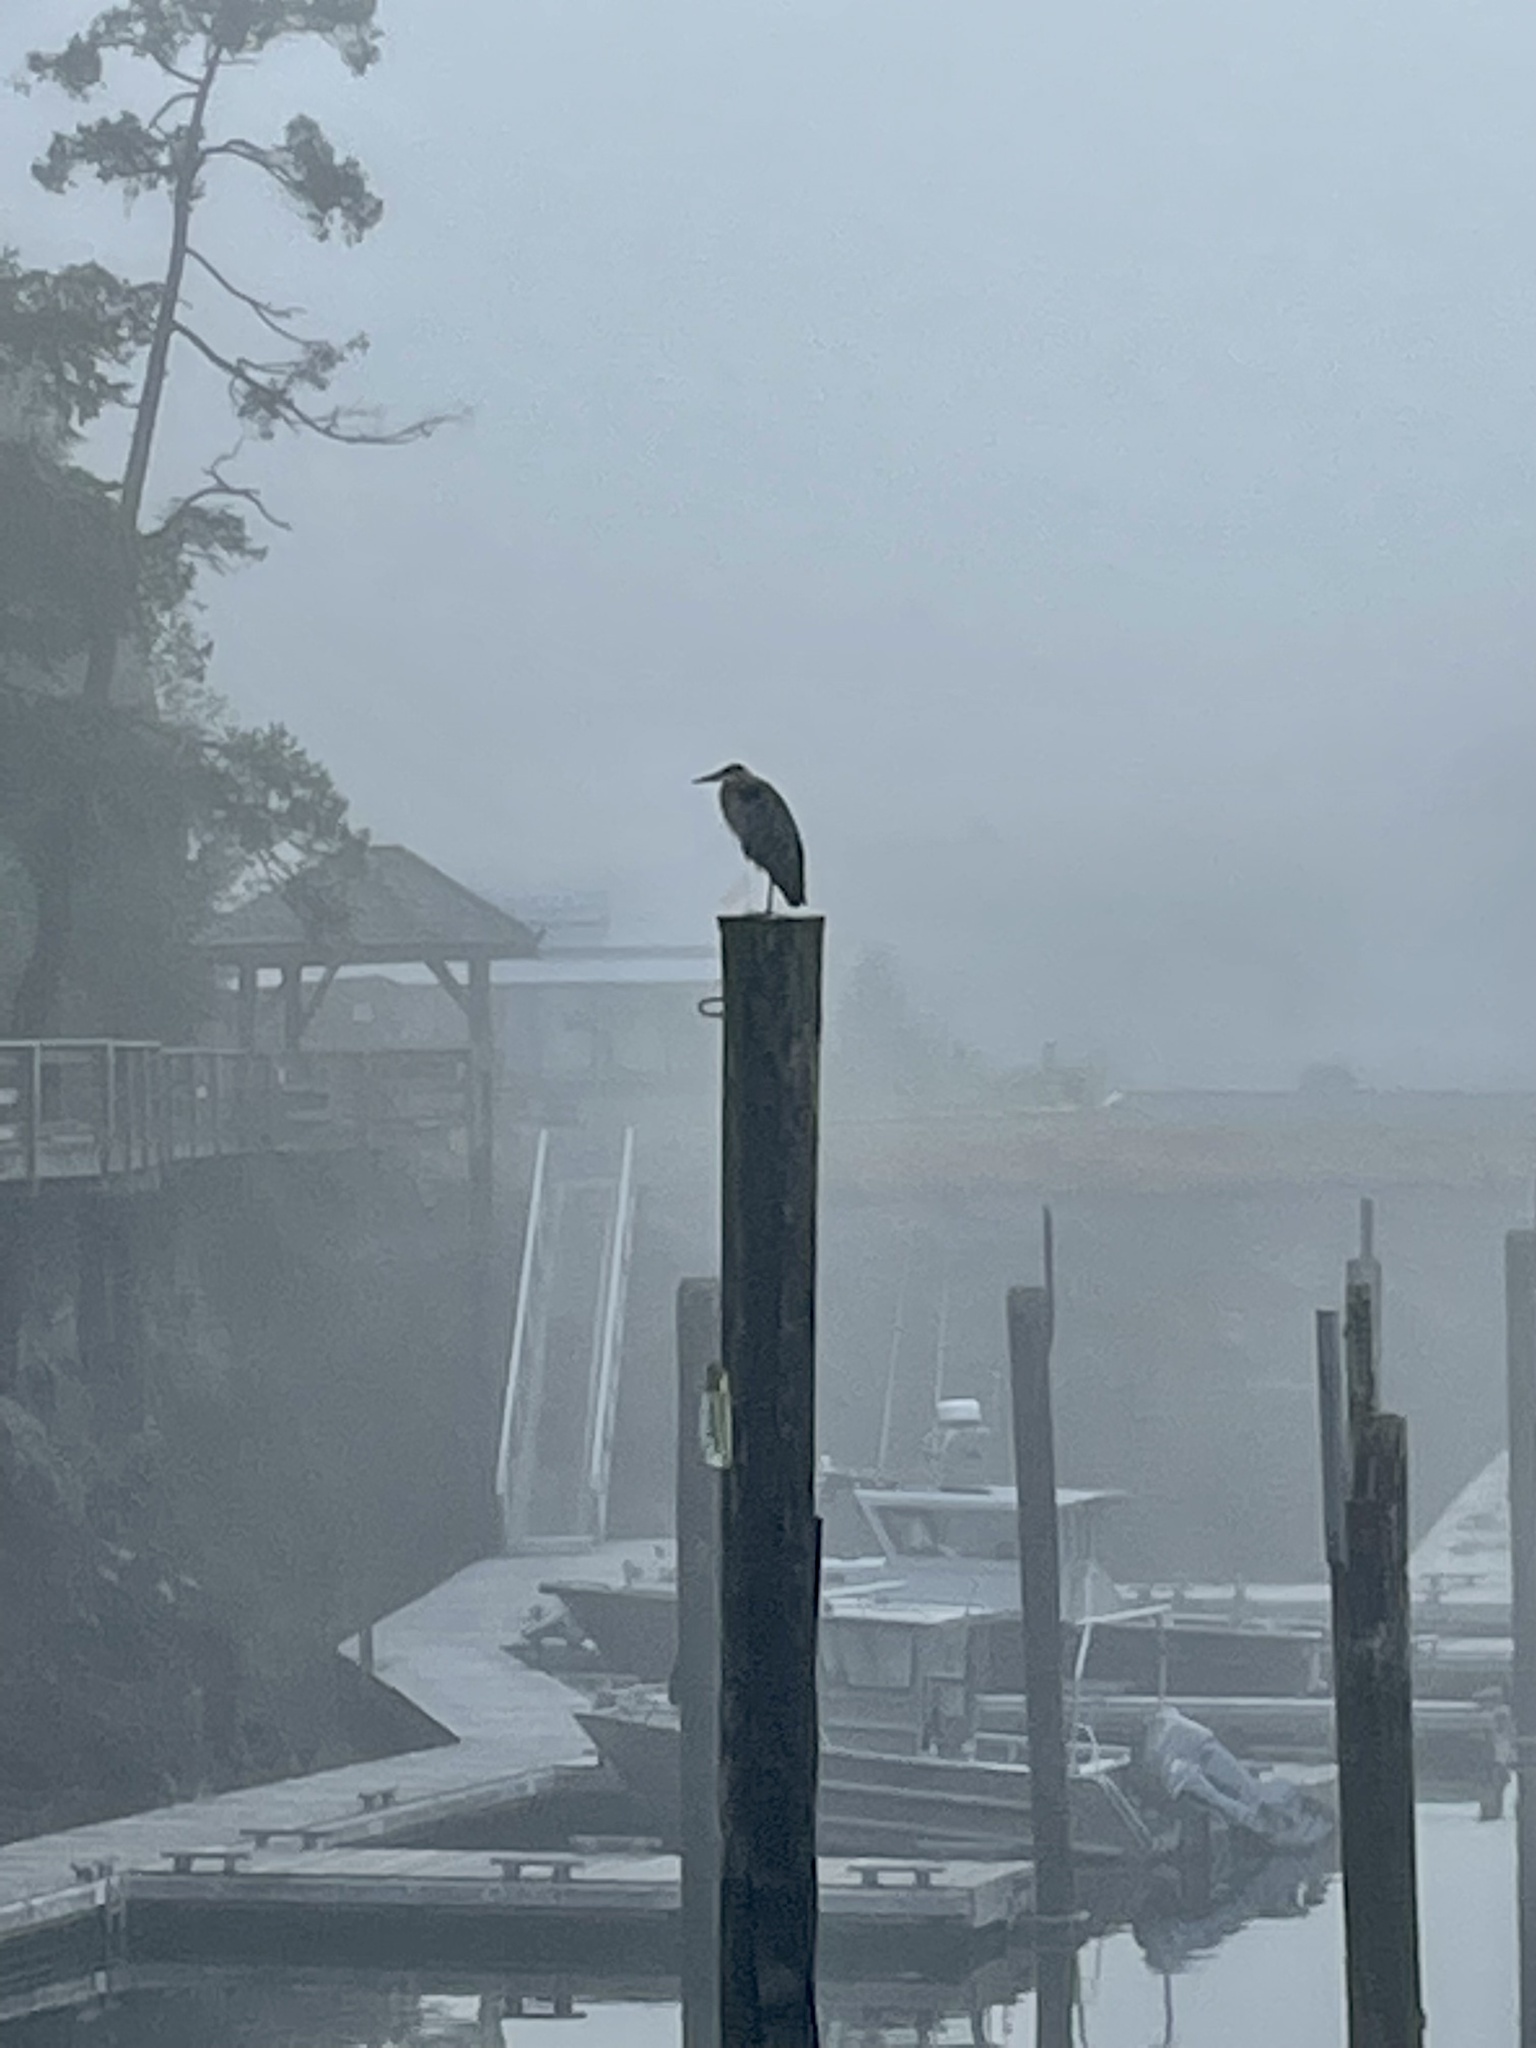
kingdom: Animalia
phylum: Chordata
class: Aves
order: Pelecaniformes
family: Ardeidae
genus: Ardea
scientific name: Ardea herodias
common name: Great blue heron
